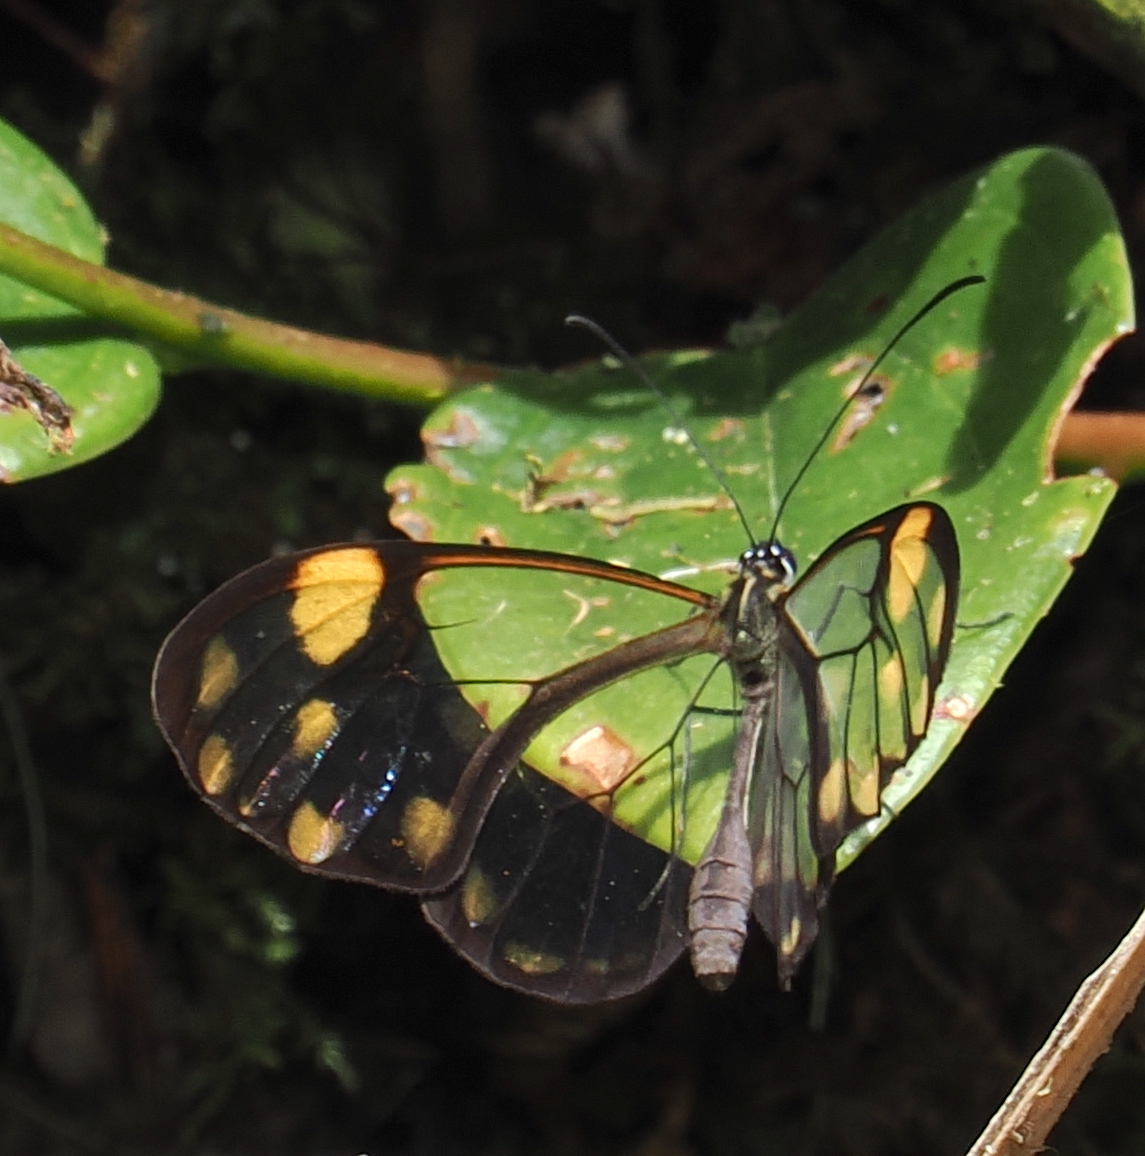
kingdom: Animalia
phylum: Arthropoda
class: Insecta
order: Lepidoptera
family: Nymphalidae
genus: Hypomenitis
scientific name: Hypomenitis
